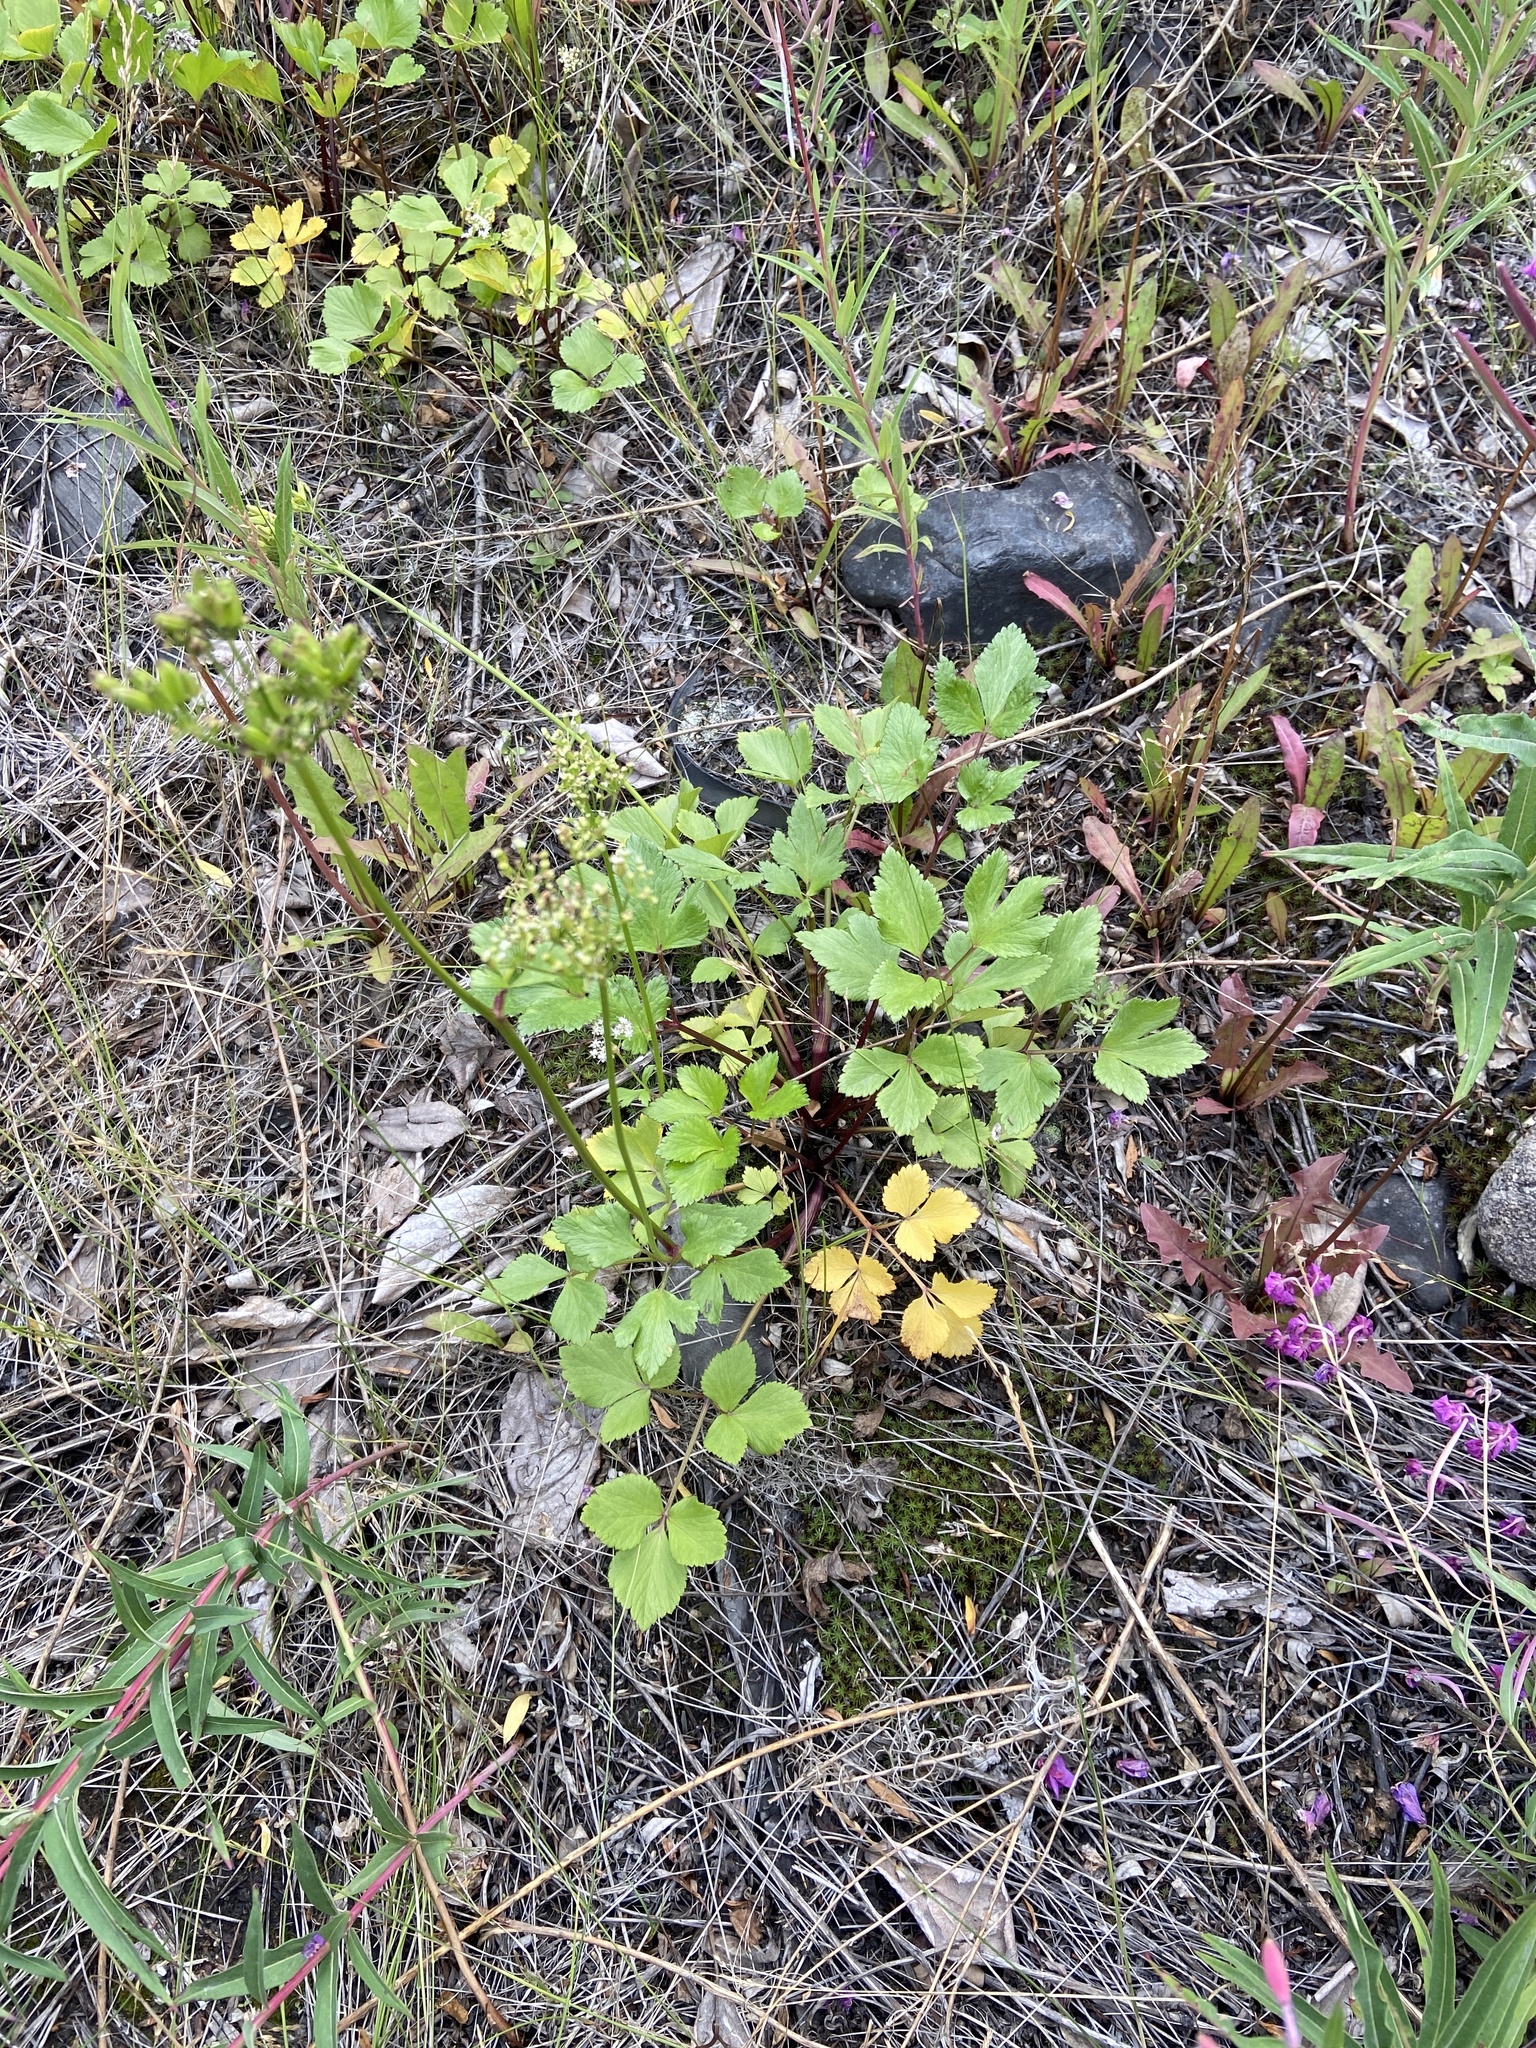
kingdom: Plantae
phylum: Tracheophyta
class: Magnoliopsida
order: Apiales
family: Apiaceae
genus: Ligusticum
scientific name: Ligusticum scothicum
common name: Beach lovage
